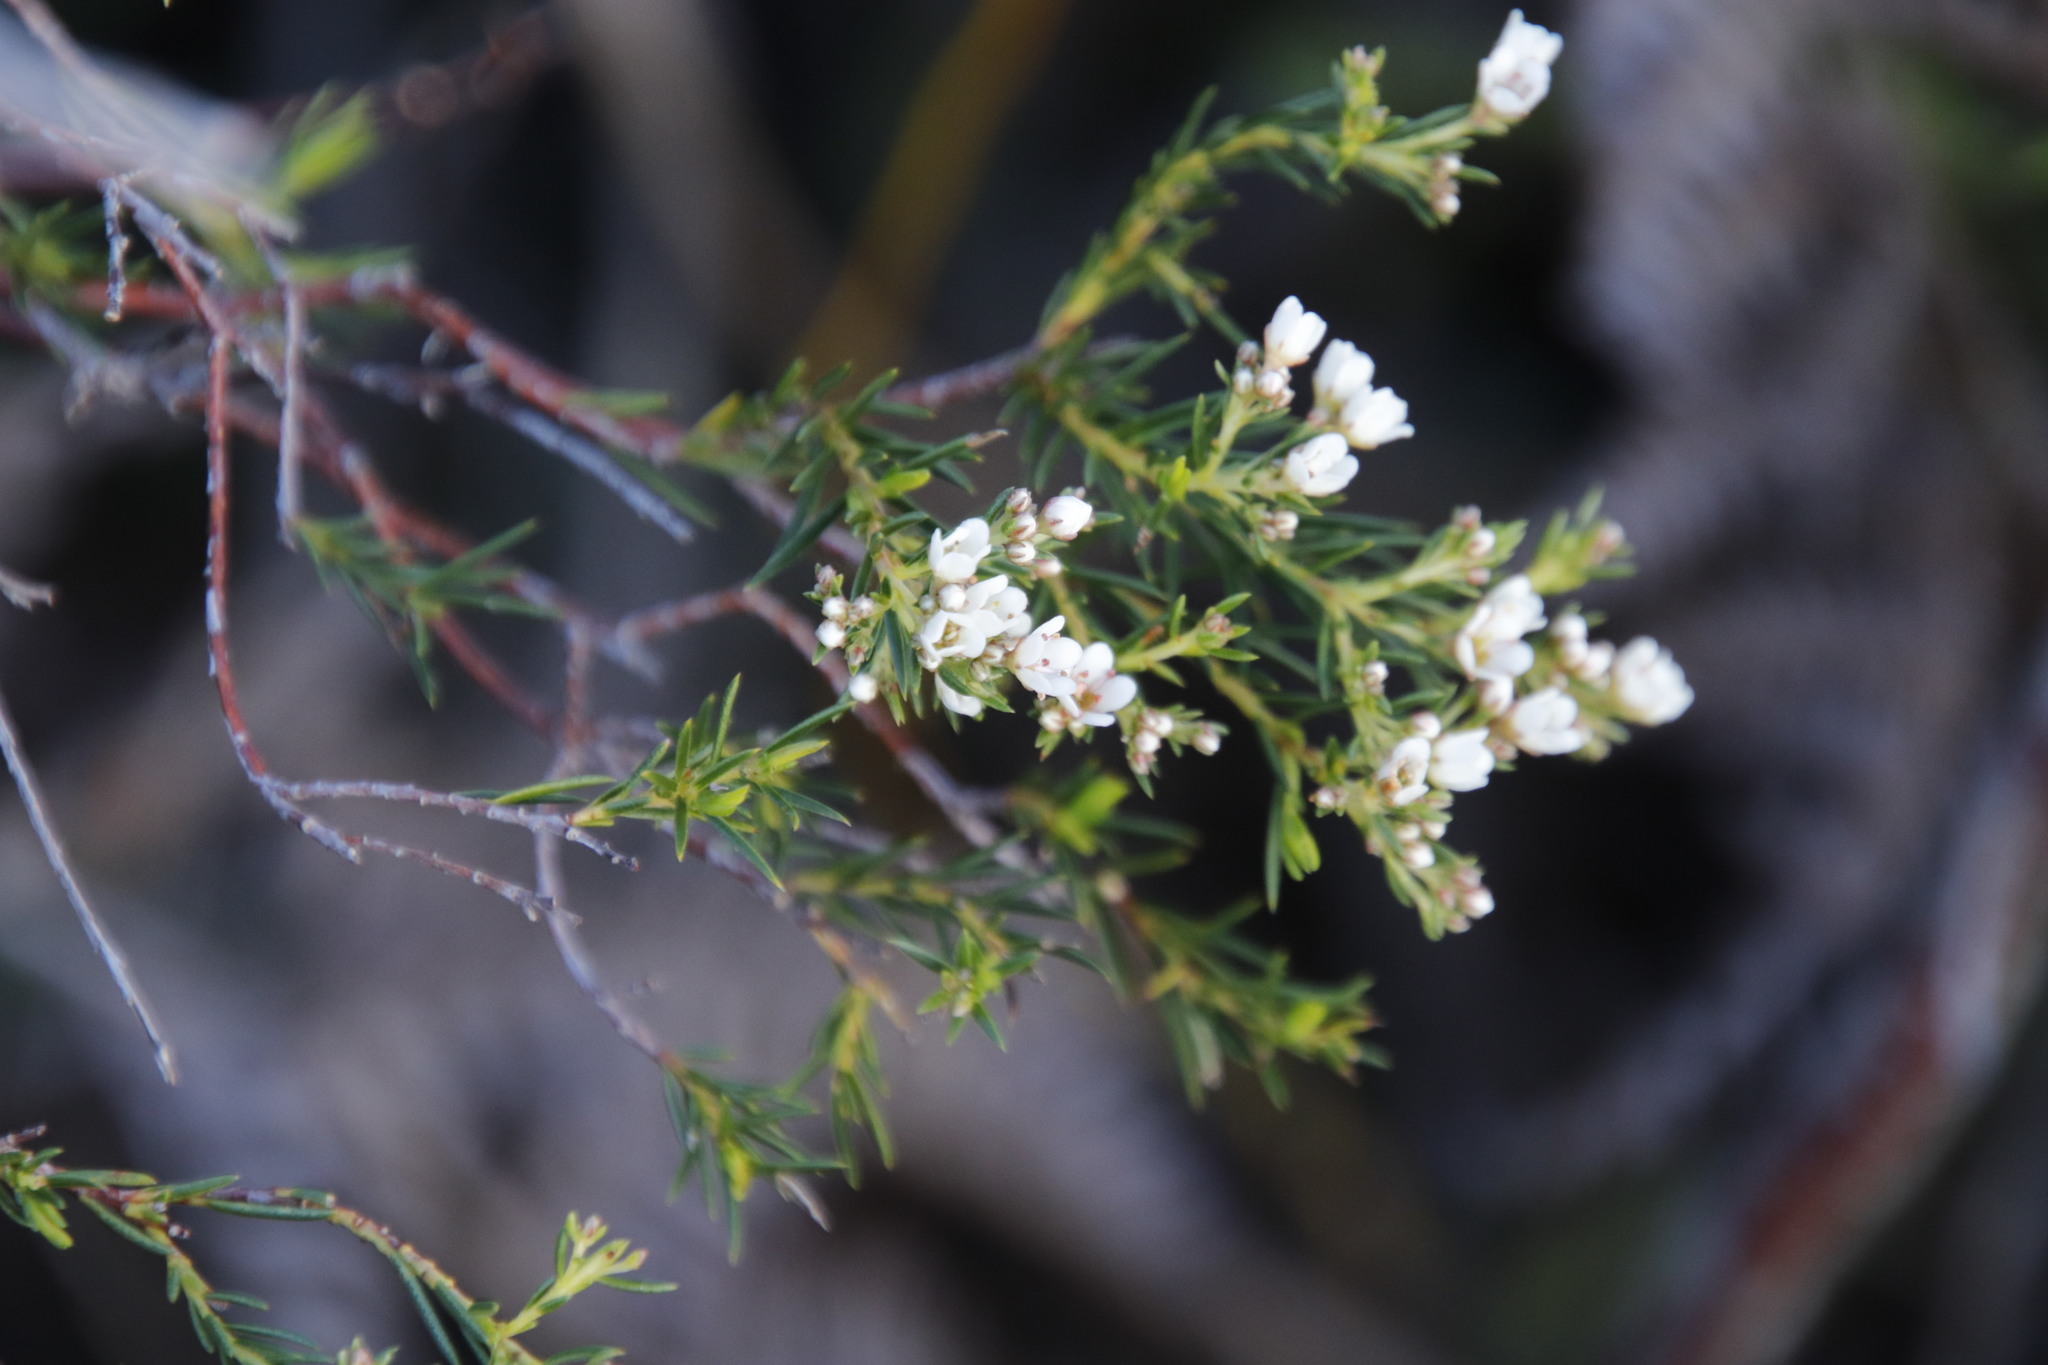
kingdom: Plantae
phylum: Tracheophyta
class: Magnoliopsida
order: Sapindales
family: Rutaceae
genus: Diosma
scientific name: Diosma hirsuta
